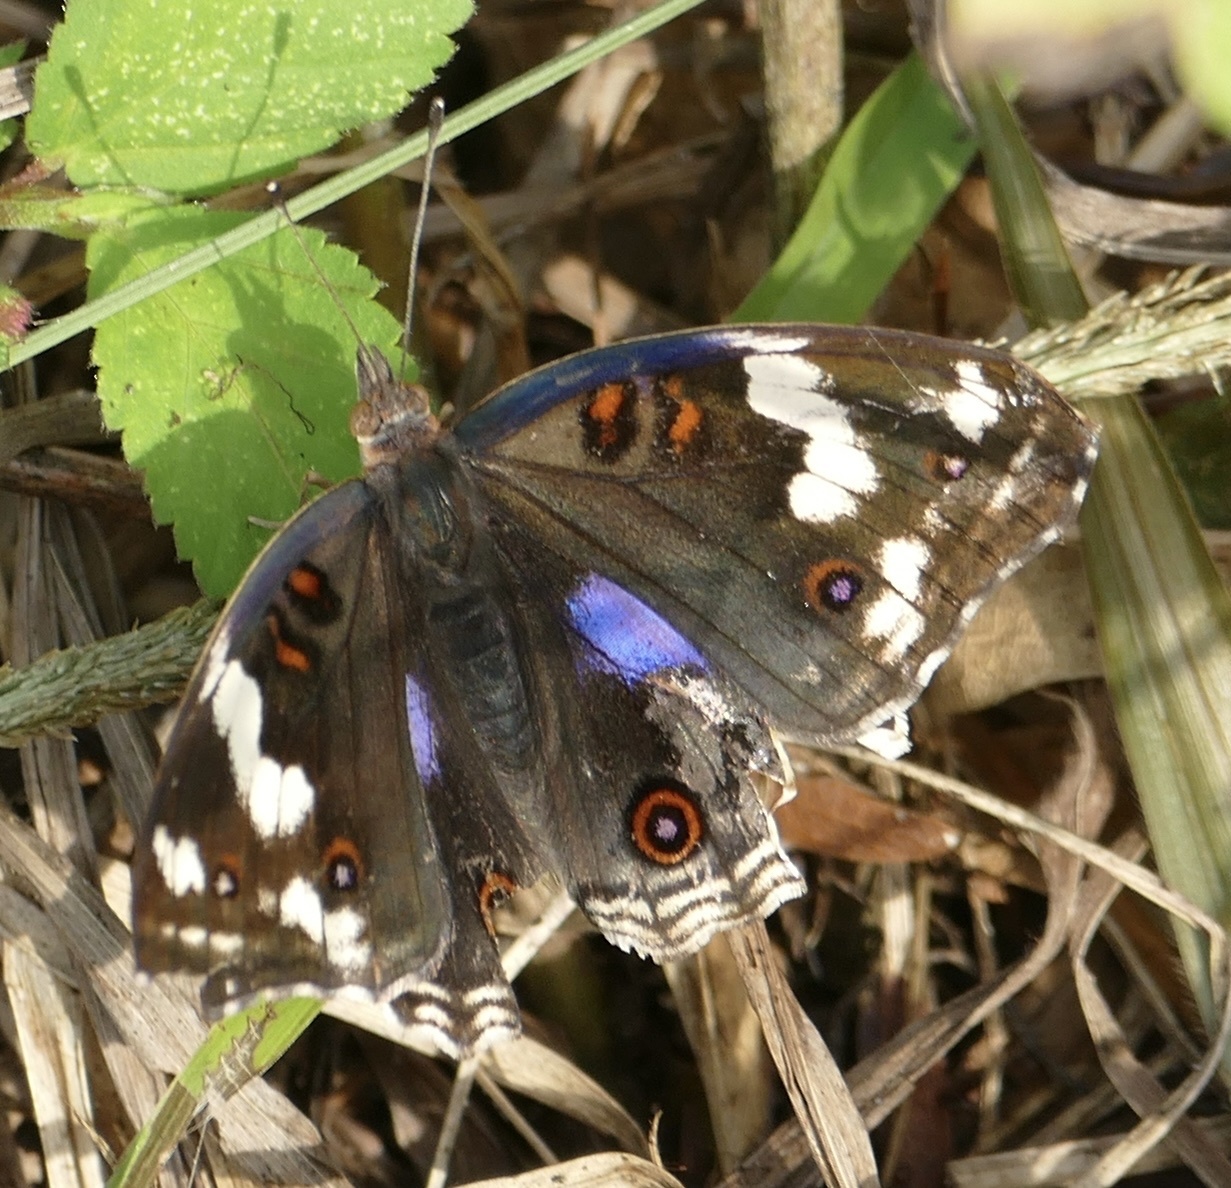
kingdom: Animalia
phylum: Arthropoda
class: Insecta
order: Lepidoptera
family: Nymphalidae
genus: Junonia
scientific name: Junonia oenone
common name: Dark blue pansy
